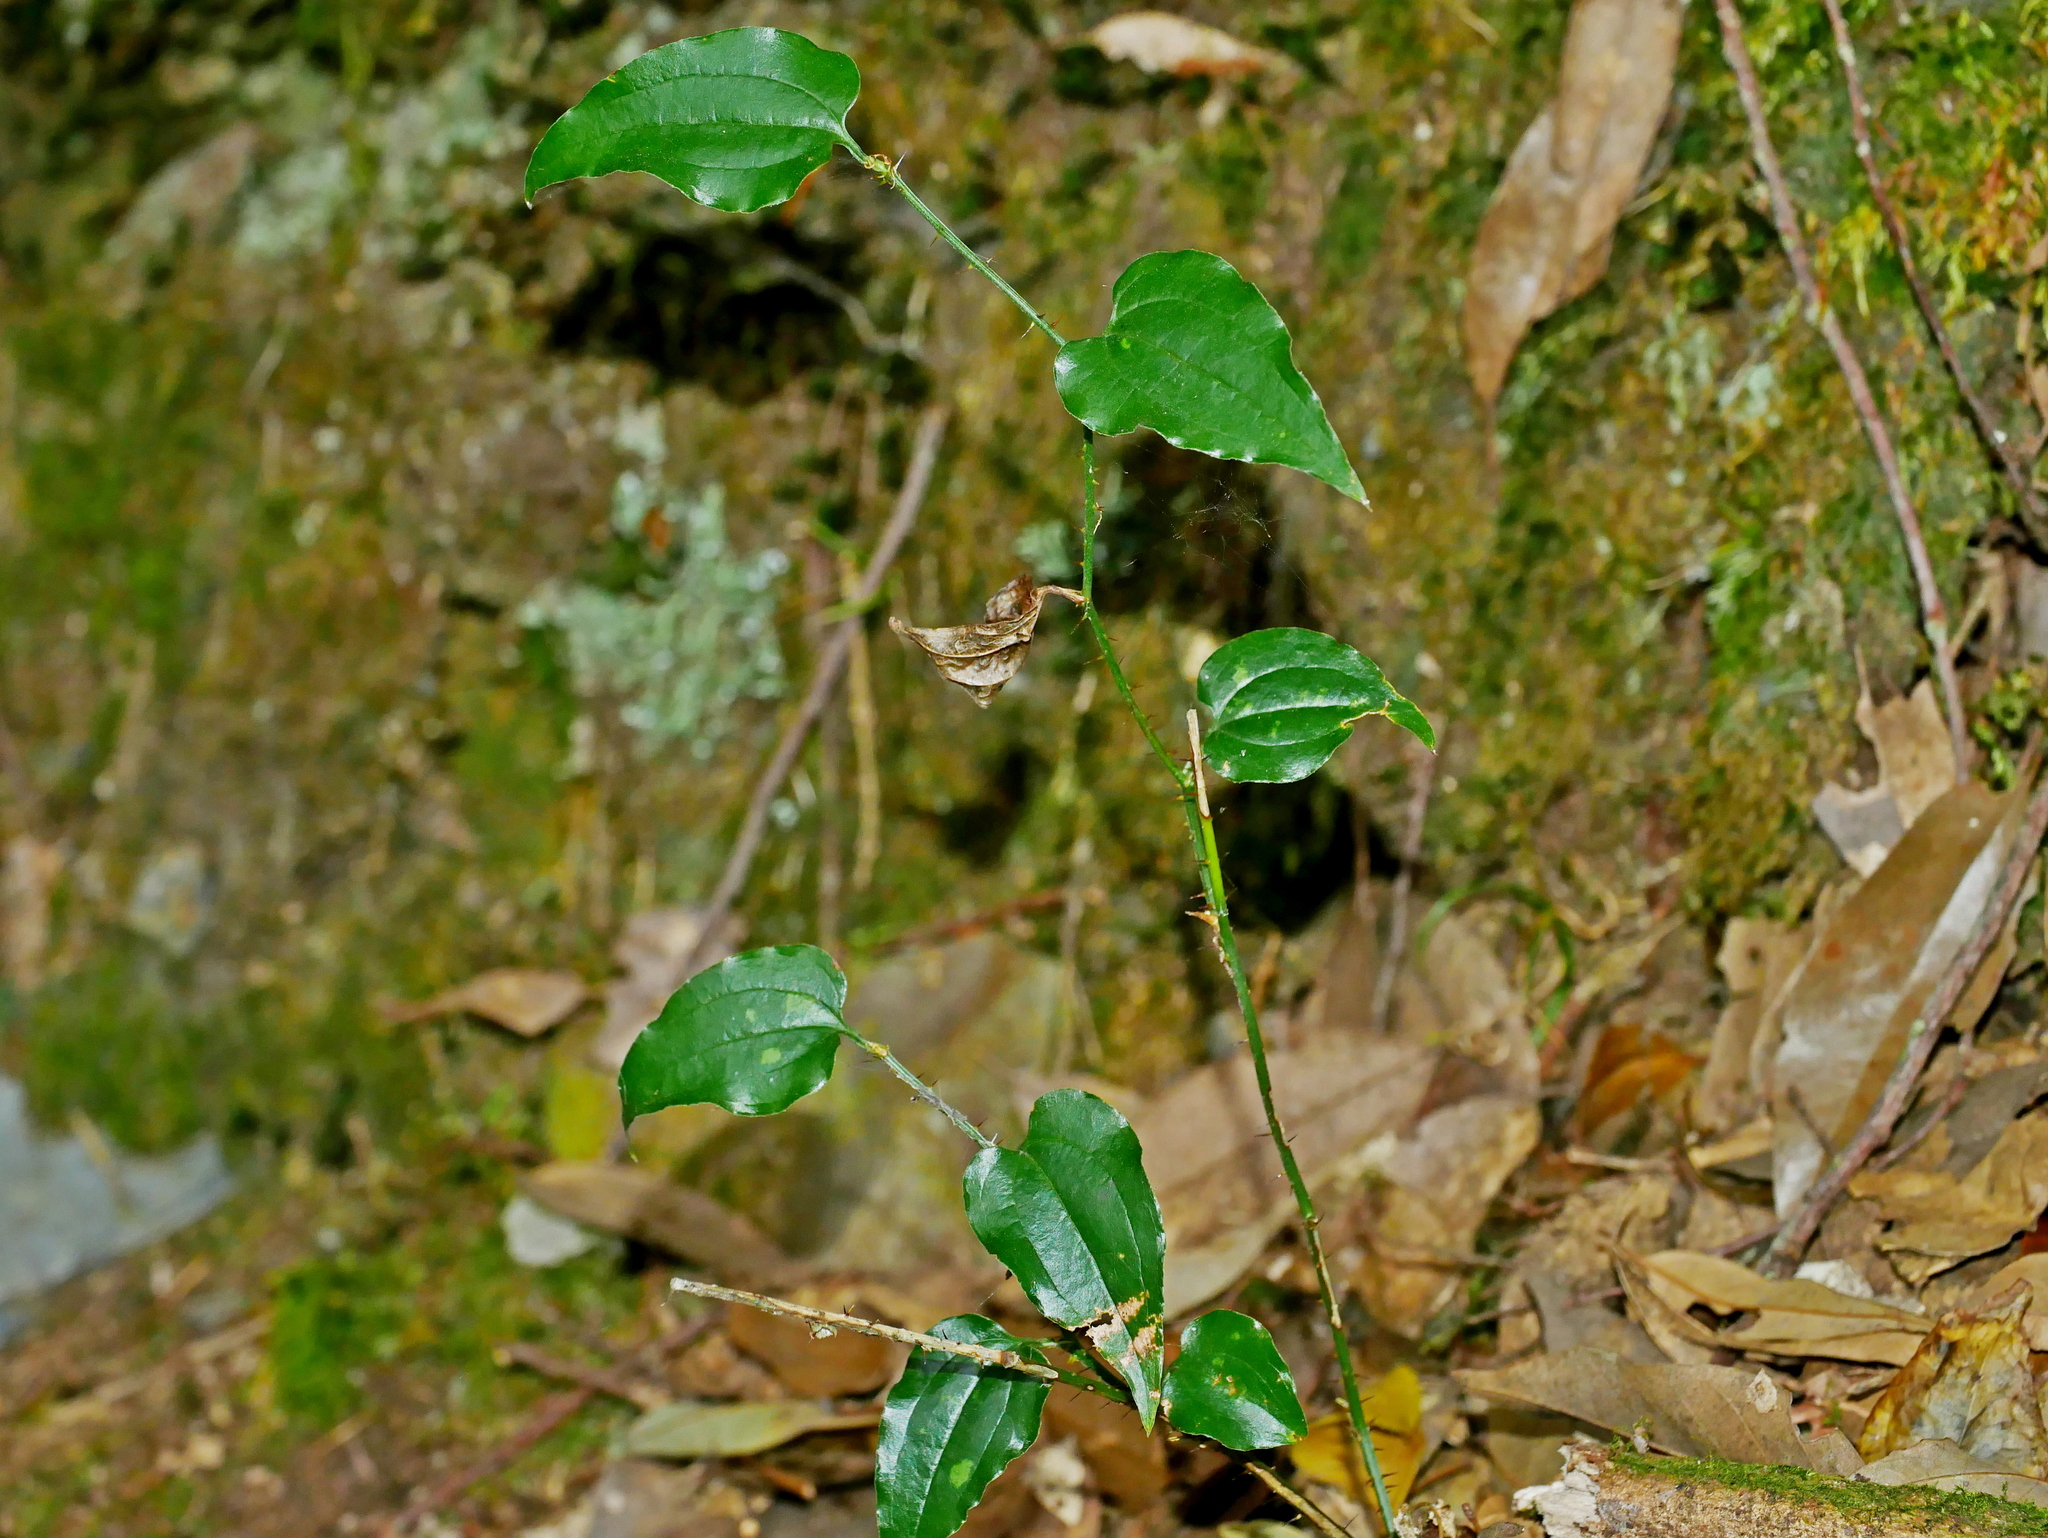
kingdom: Plantae
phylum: Tracheophyta
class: Liliopsida
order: Liliales
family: Smilacaceae
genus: Smilax
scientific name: Smilax sieboldii
